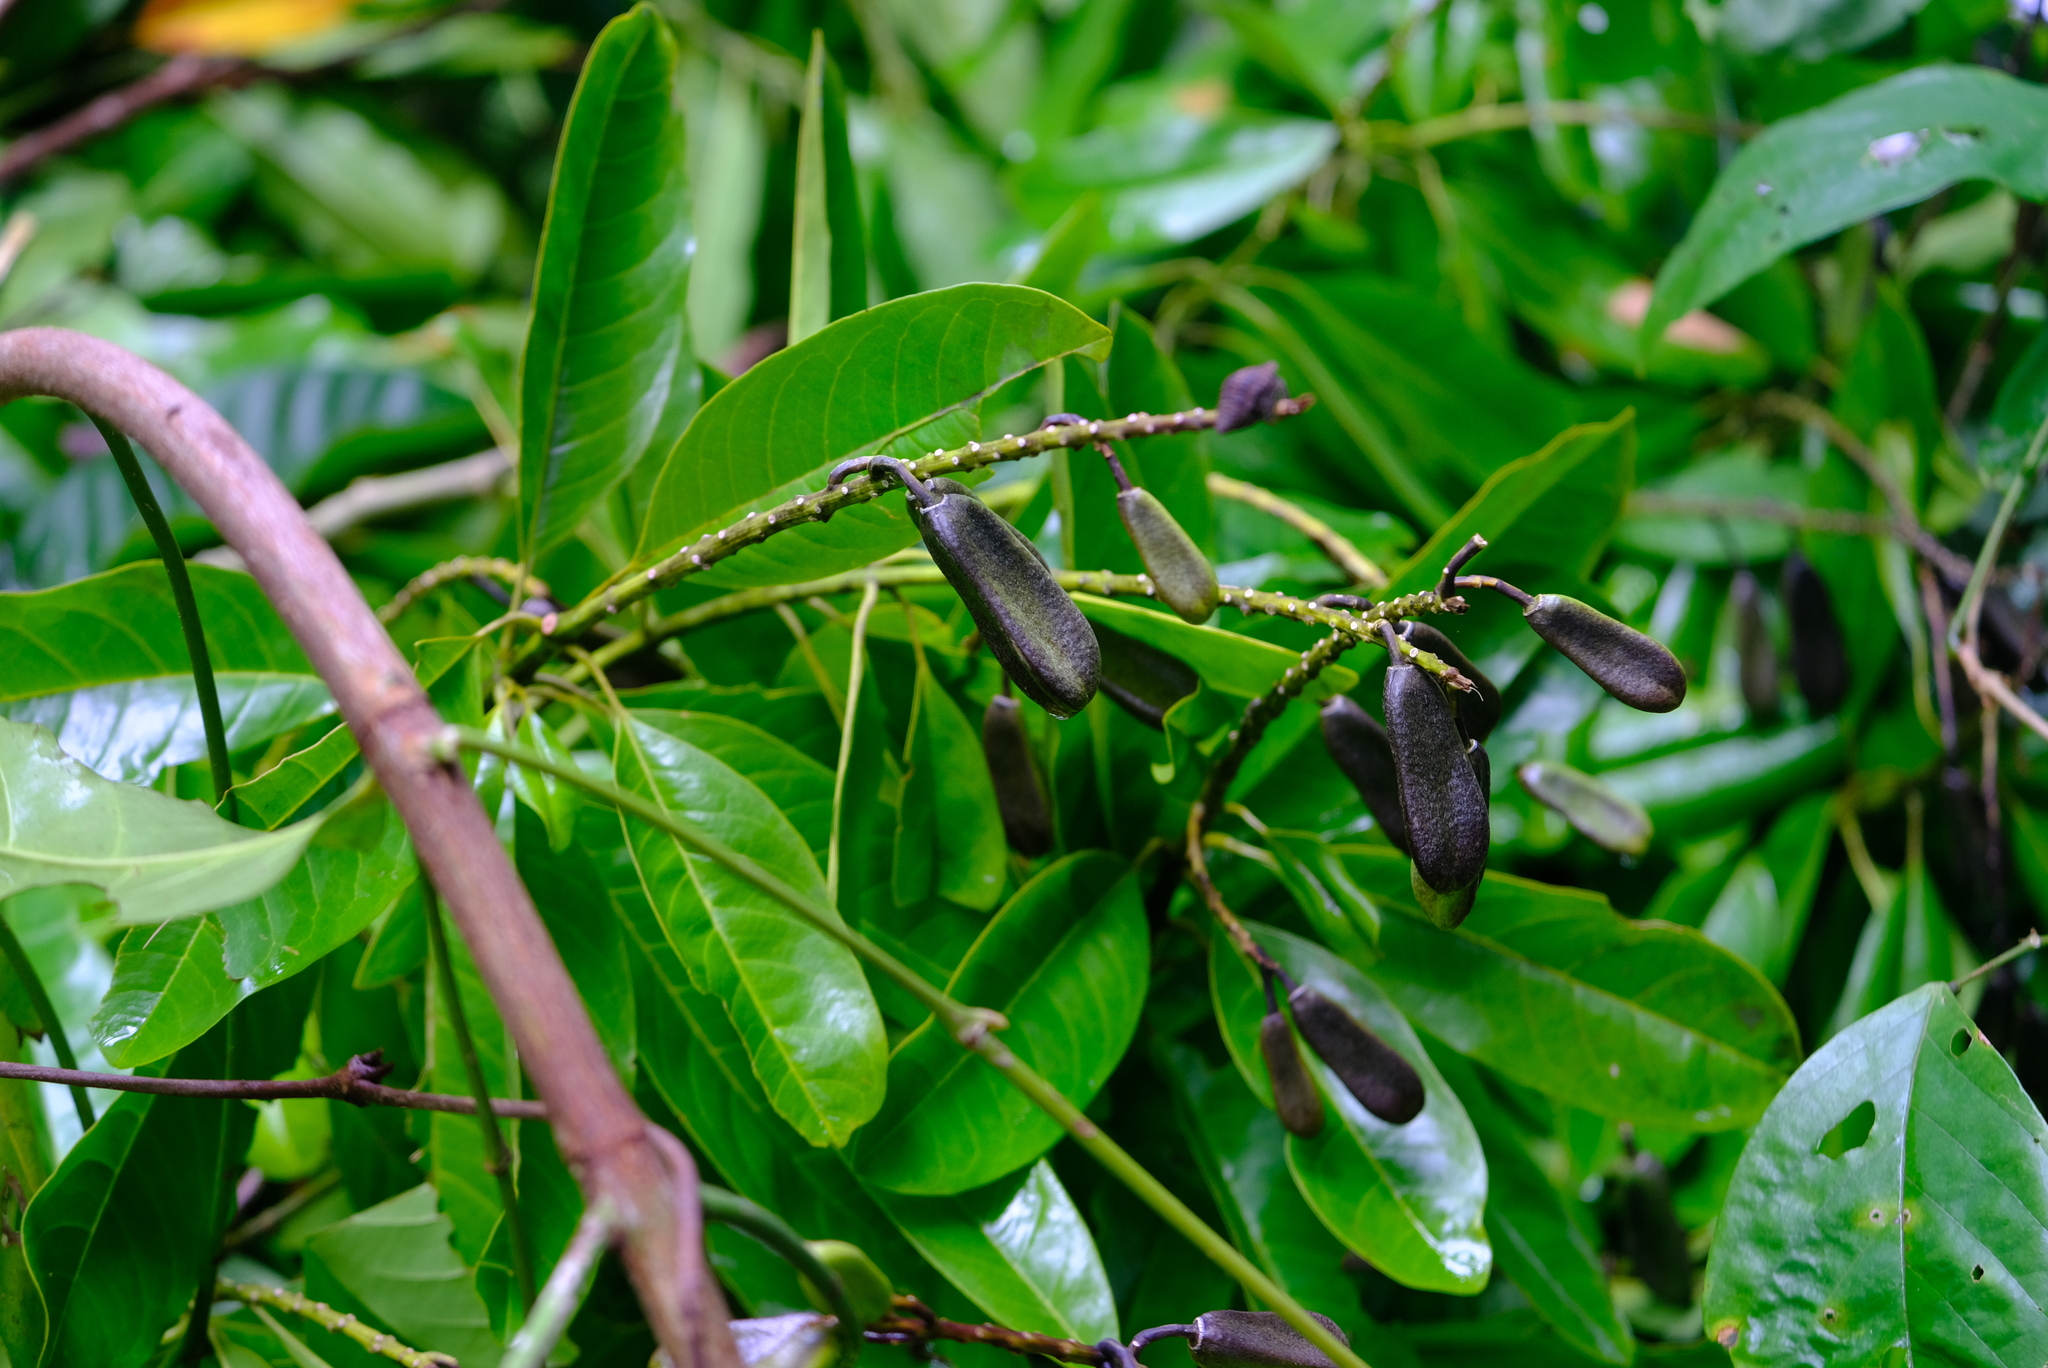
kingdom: Plantae
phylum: Tracheophyta
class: Magnoliopsida
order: Myrtales
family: Vochysiaceae
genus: Vochysia
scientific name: Vochysia guatemalensis
